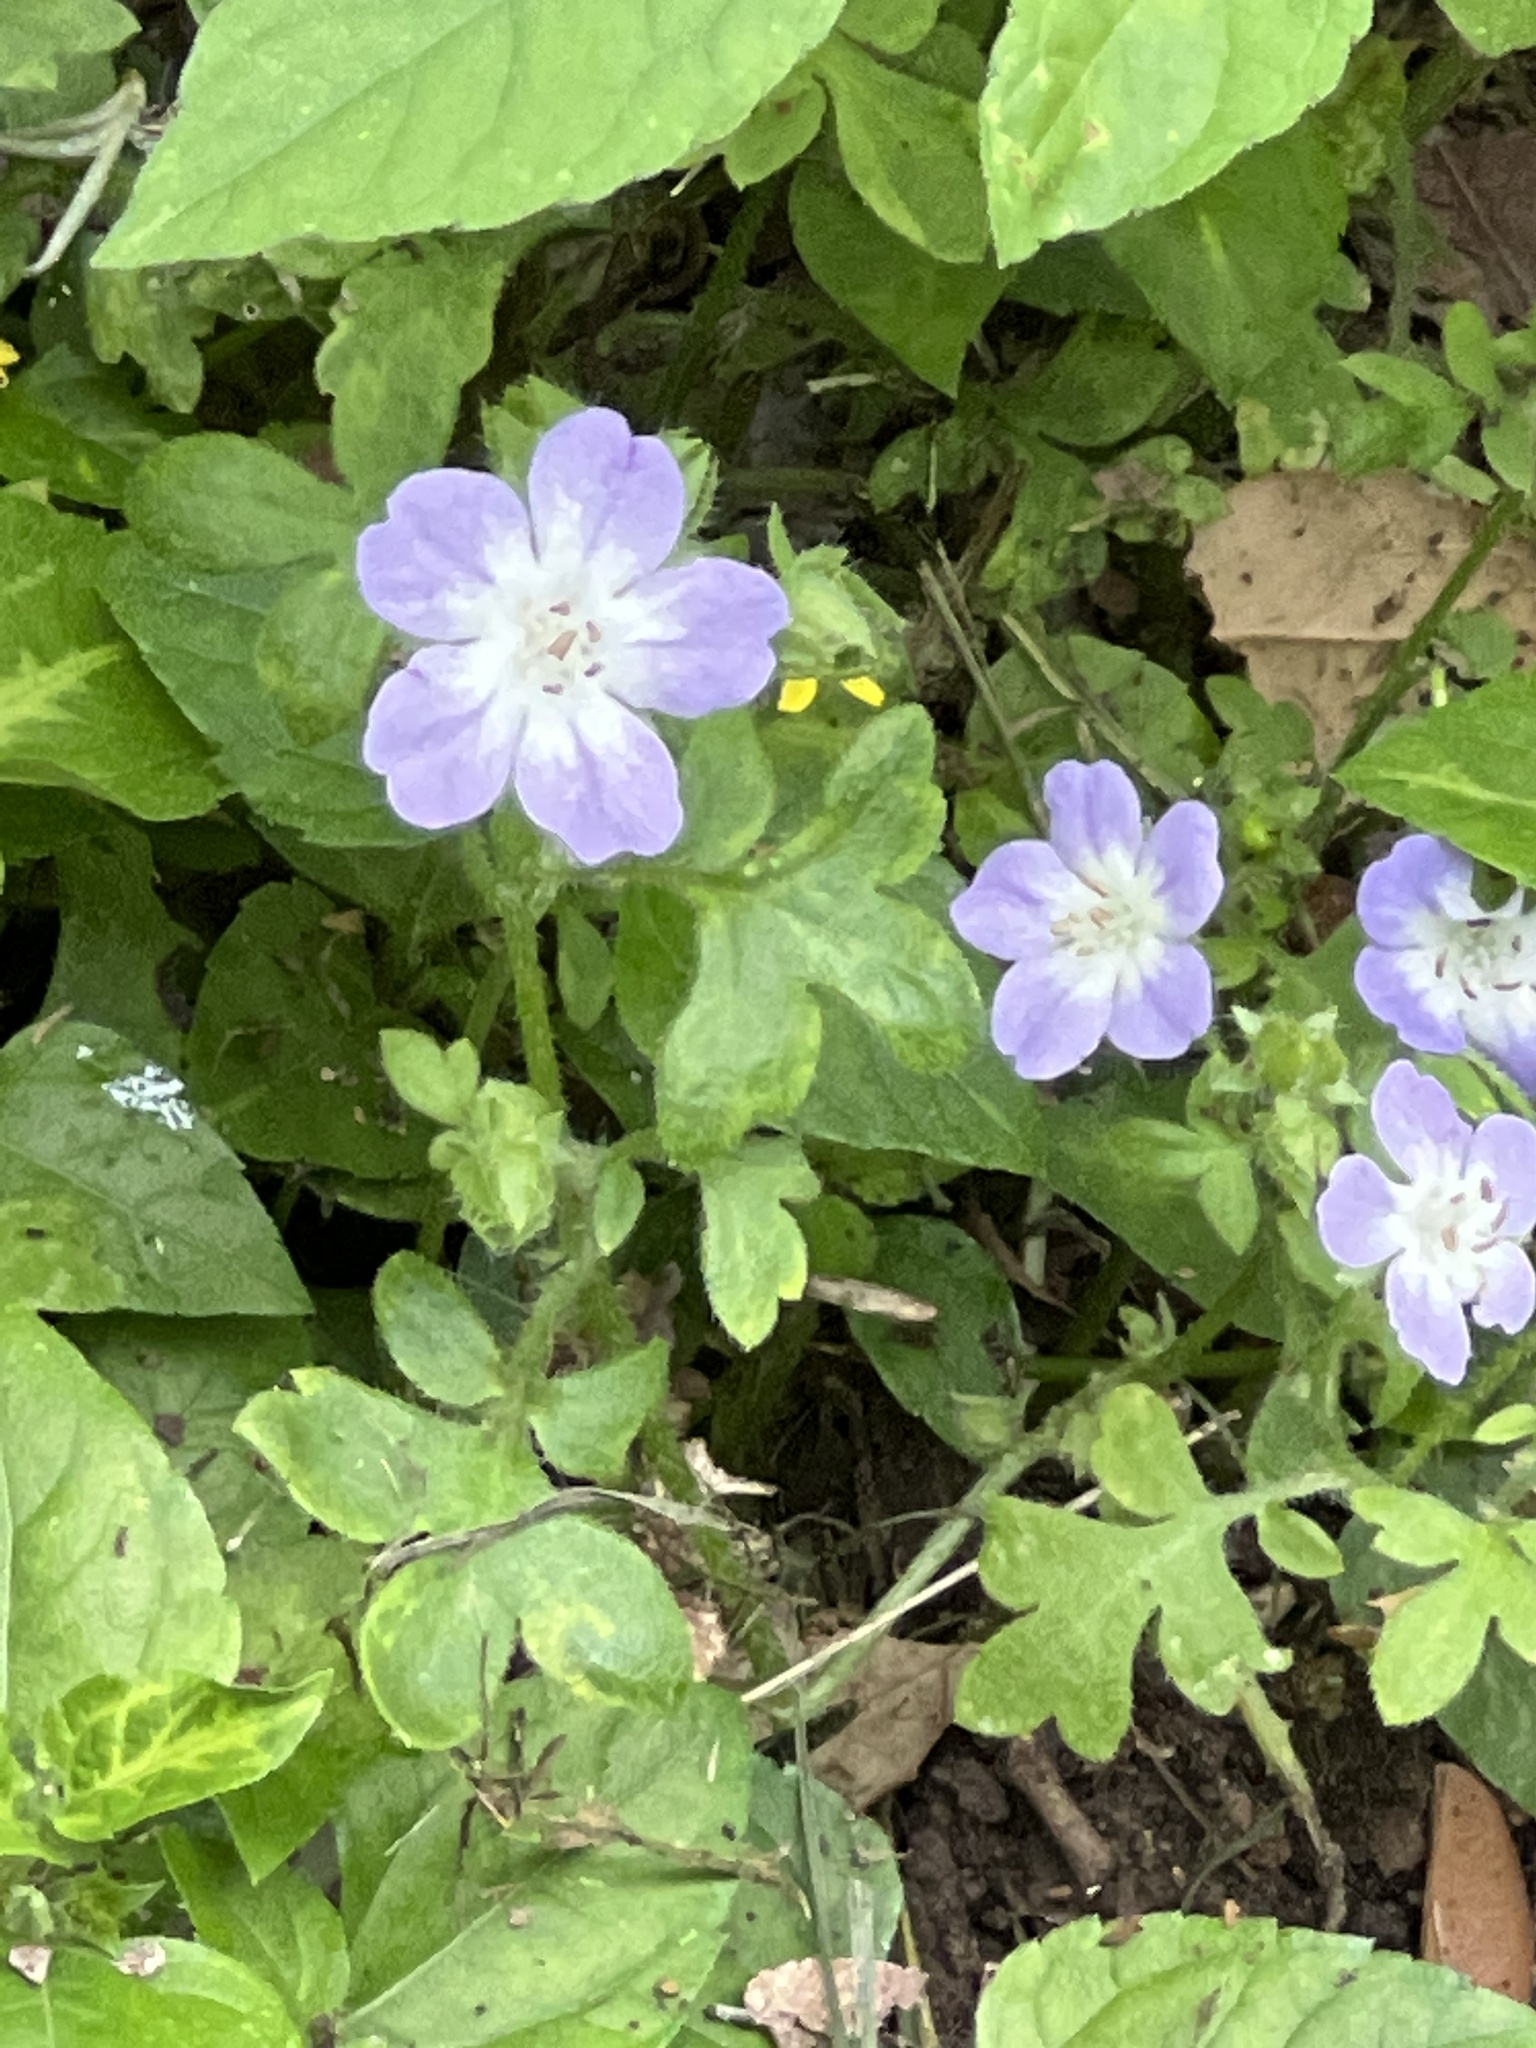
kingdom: Plantae
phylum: Tracheophyta
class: Magnoliopsida
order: Boraginales
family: Hydrophyllaceae
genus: Nemophila
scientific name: Nemophila phacelioides
